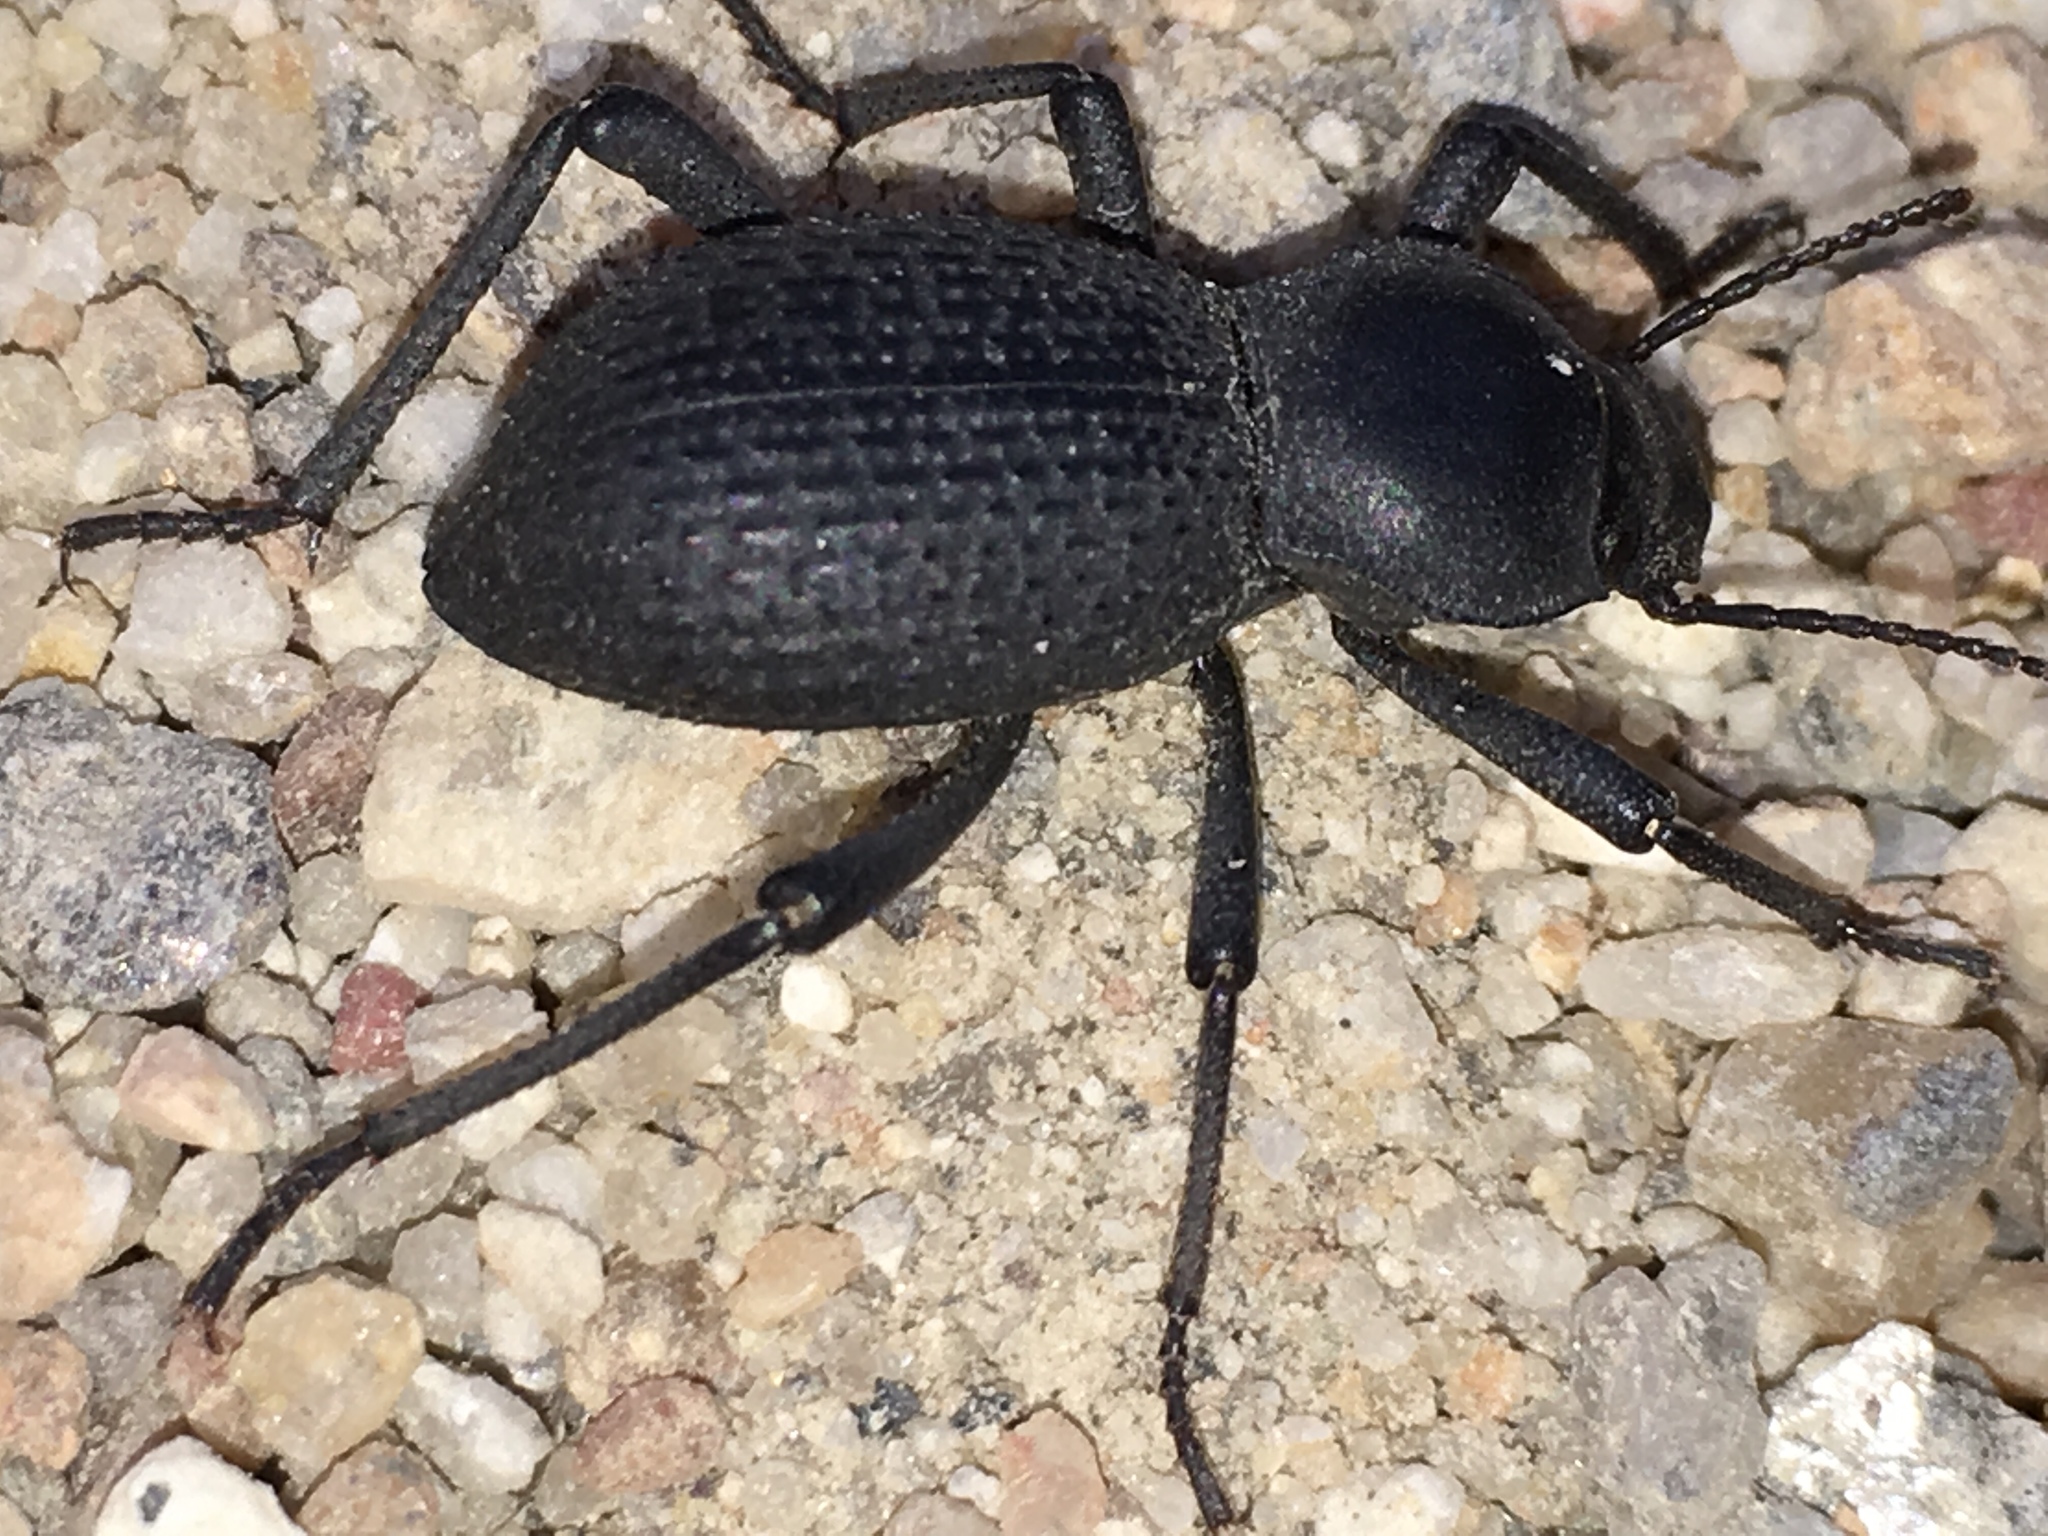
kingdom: Animalia
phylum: Arthropoda
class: Insecta
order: Coleoptera
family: Tenebrionidae
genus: Cryptoglossa
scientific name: Cryptoglossa muricata
